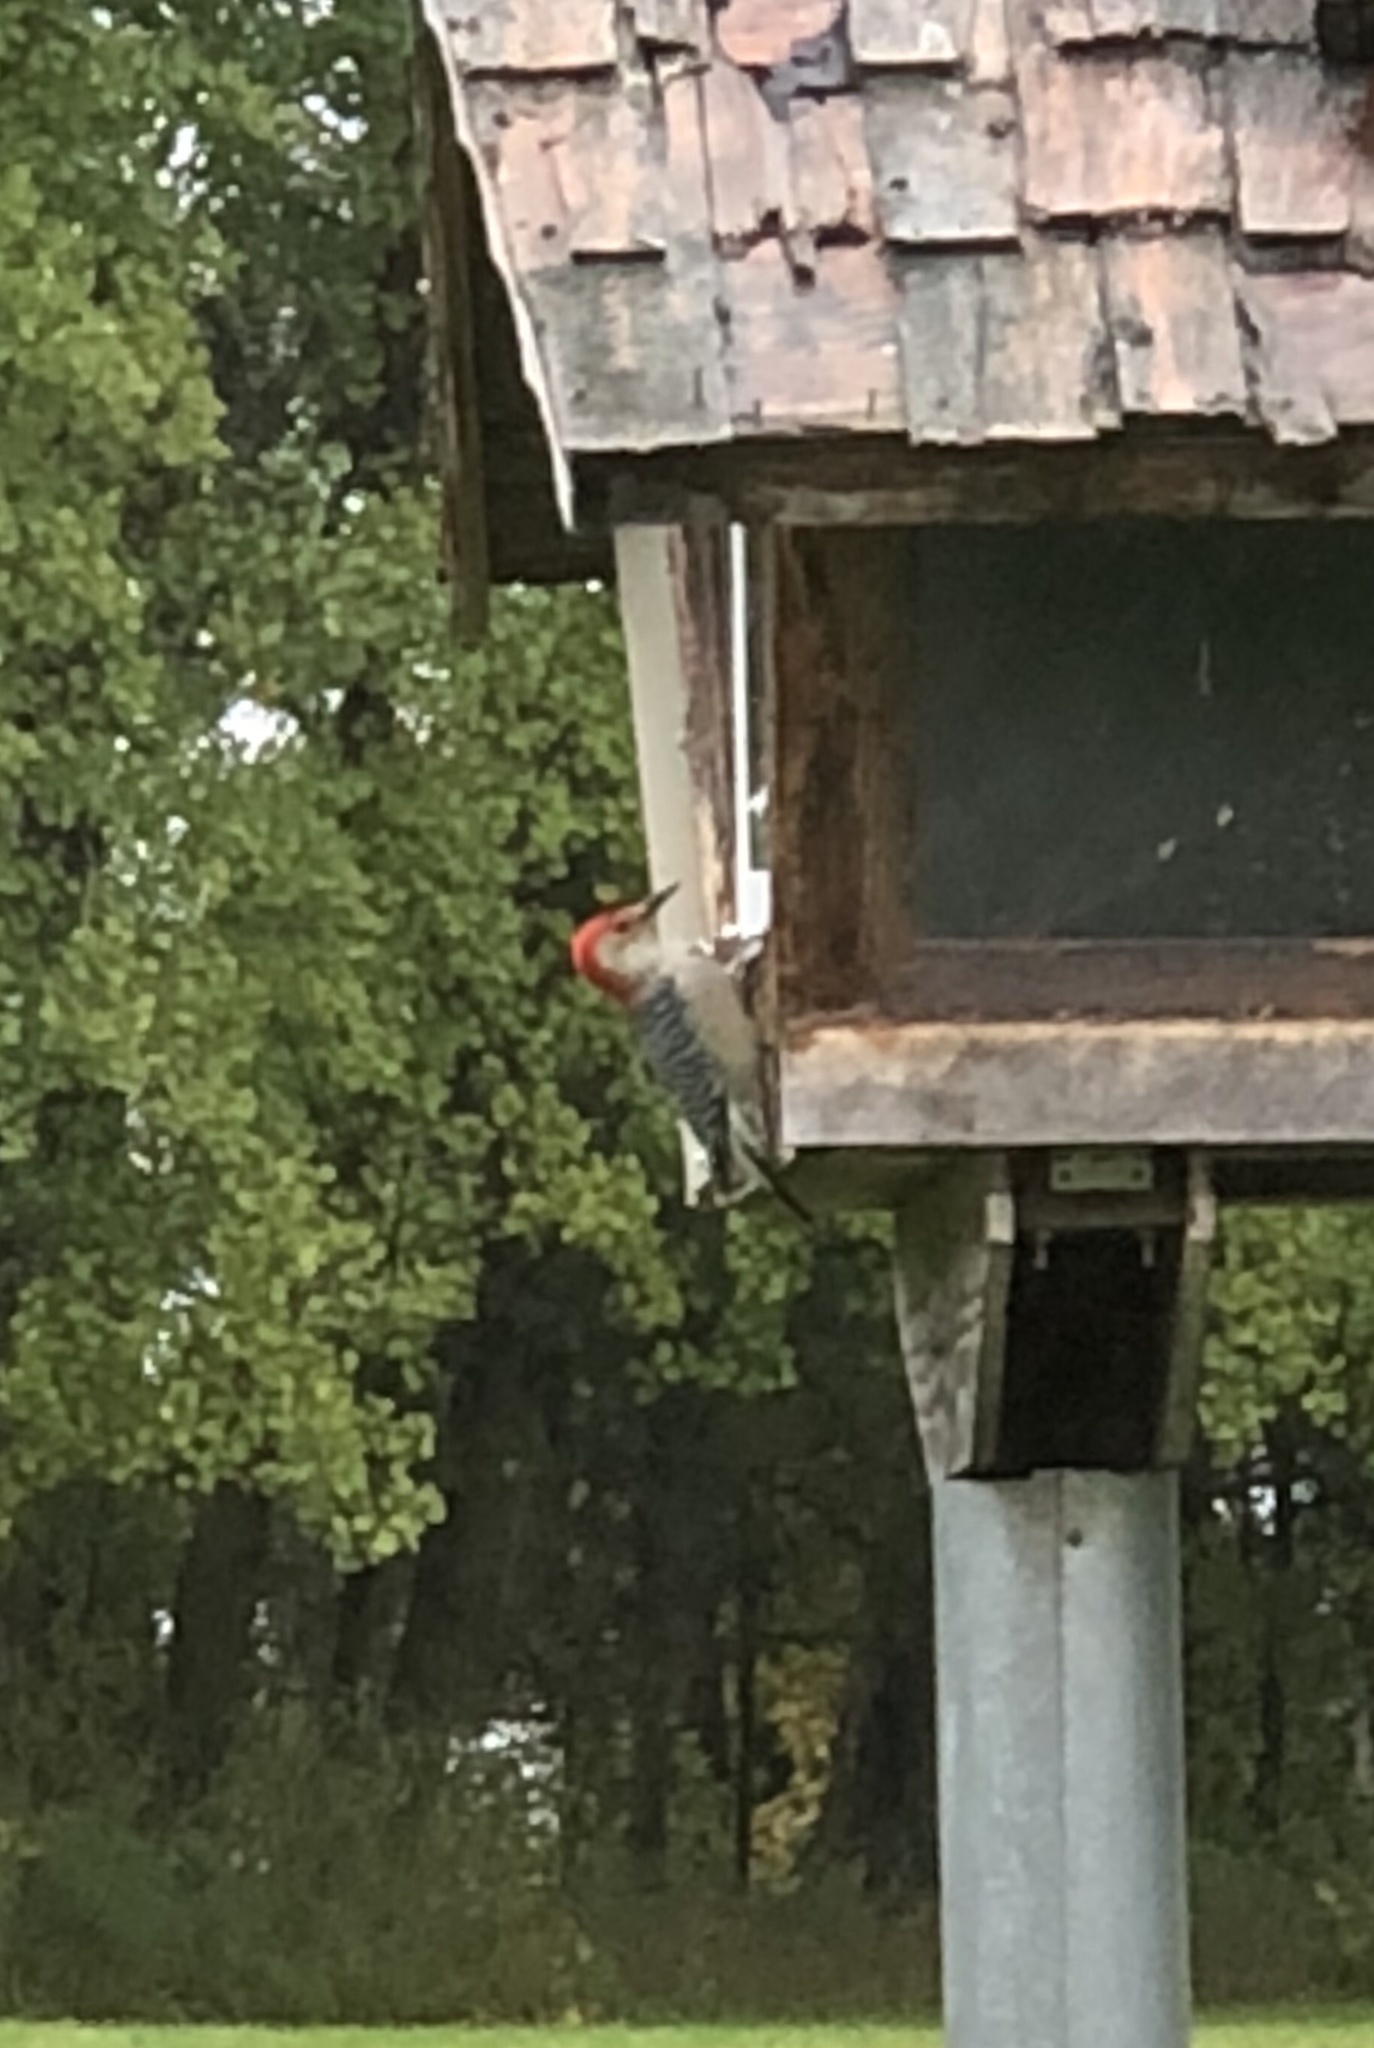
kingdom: Animalia
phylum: Chordata
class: Aves
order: Piciformes
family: Picidae
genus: Melanerpes
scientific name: Melanerpes carolinus
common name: Red-bellied woodpecker
